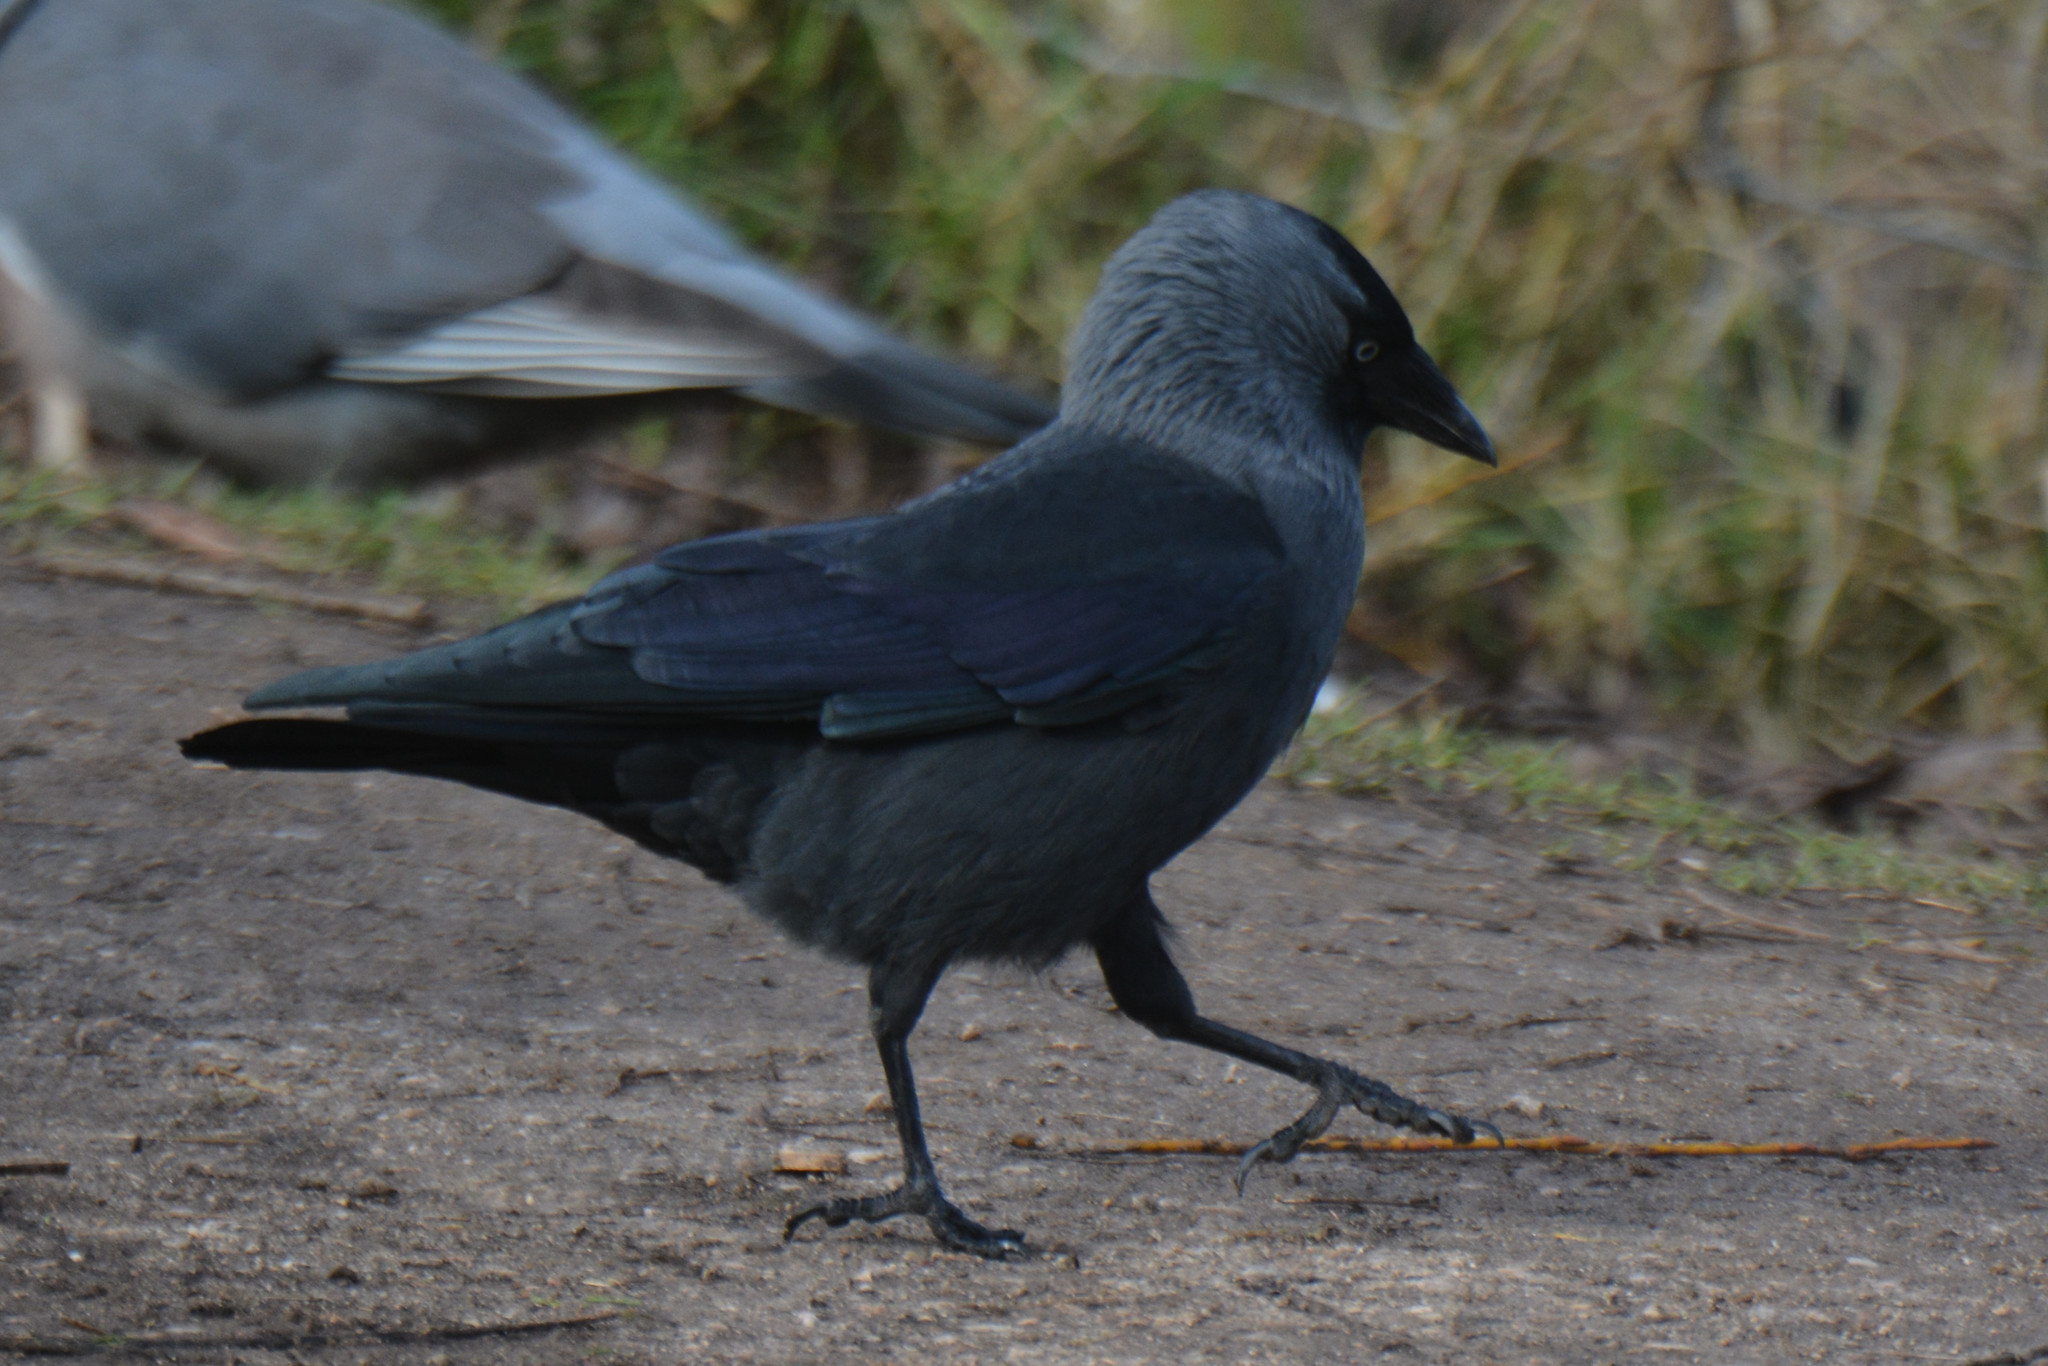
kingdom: Animalia
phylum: Chordata
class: Aves
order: Passeriformes
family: Corvidae
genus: Coloeus
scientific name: Coloeus monedula
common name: Western jackdaw
